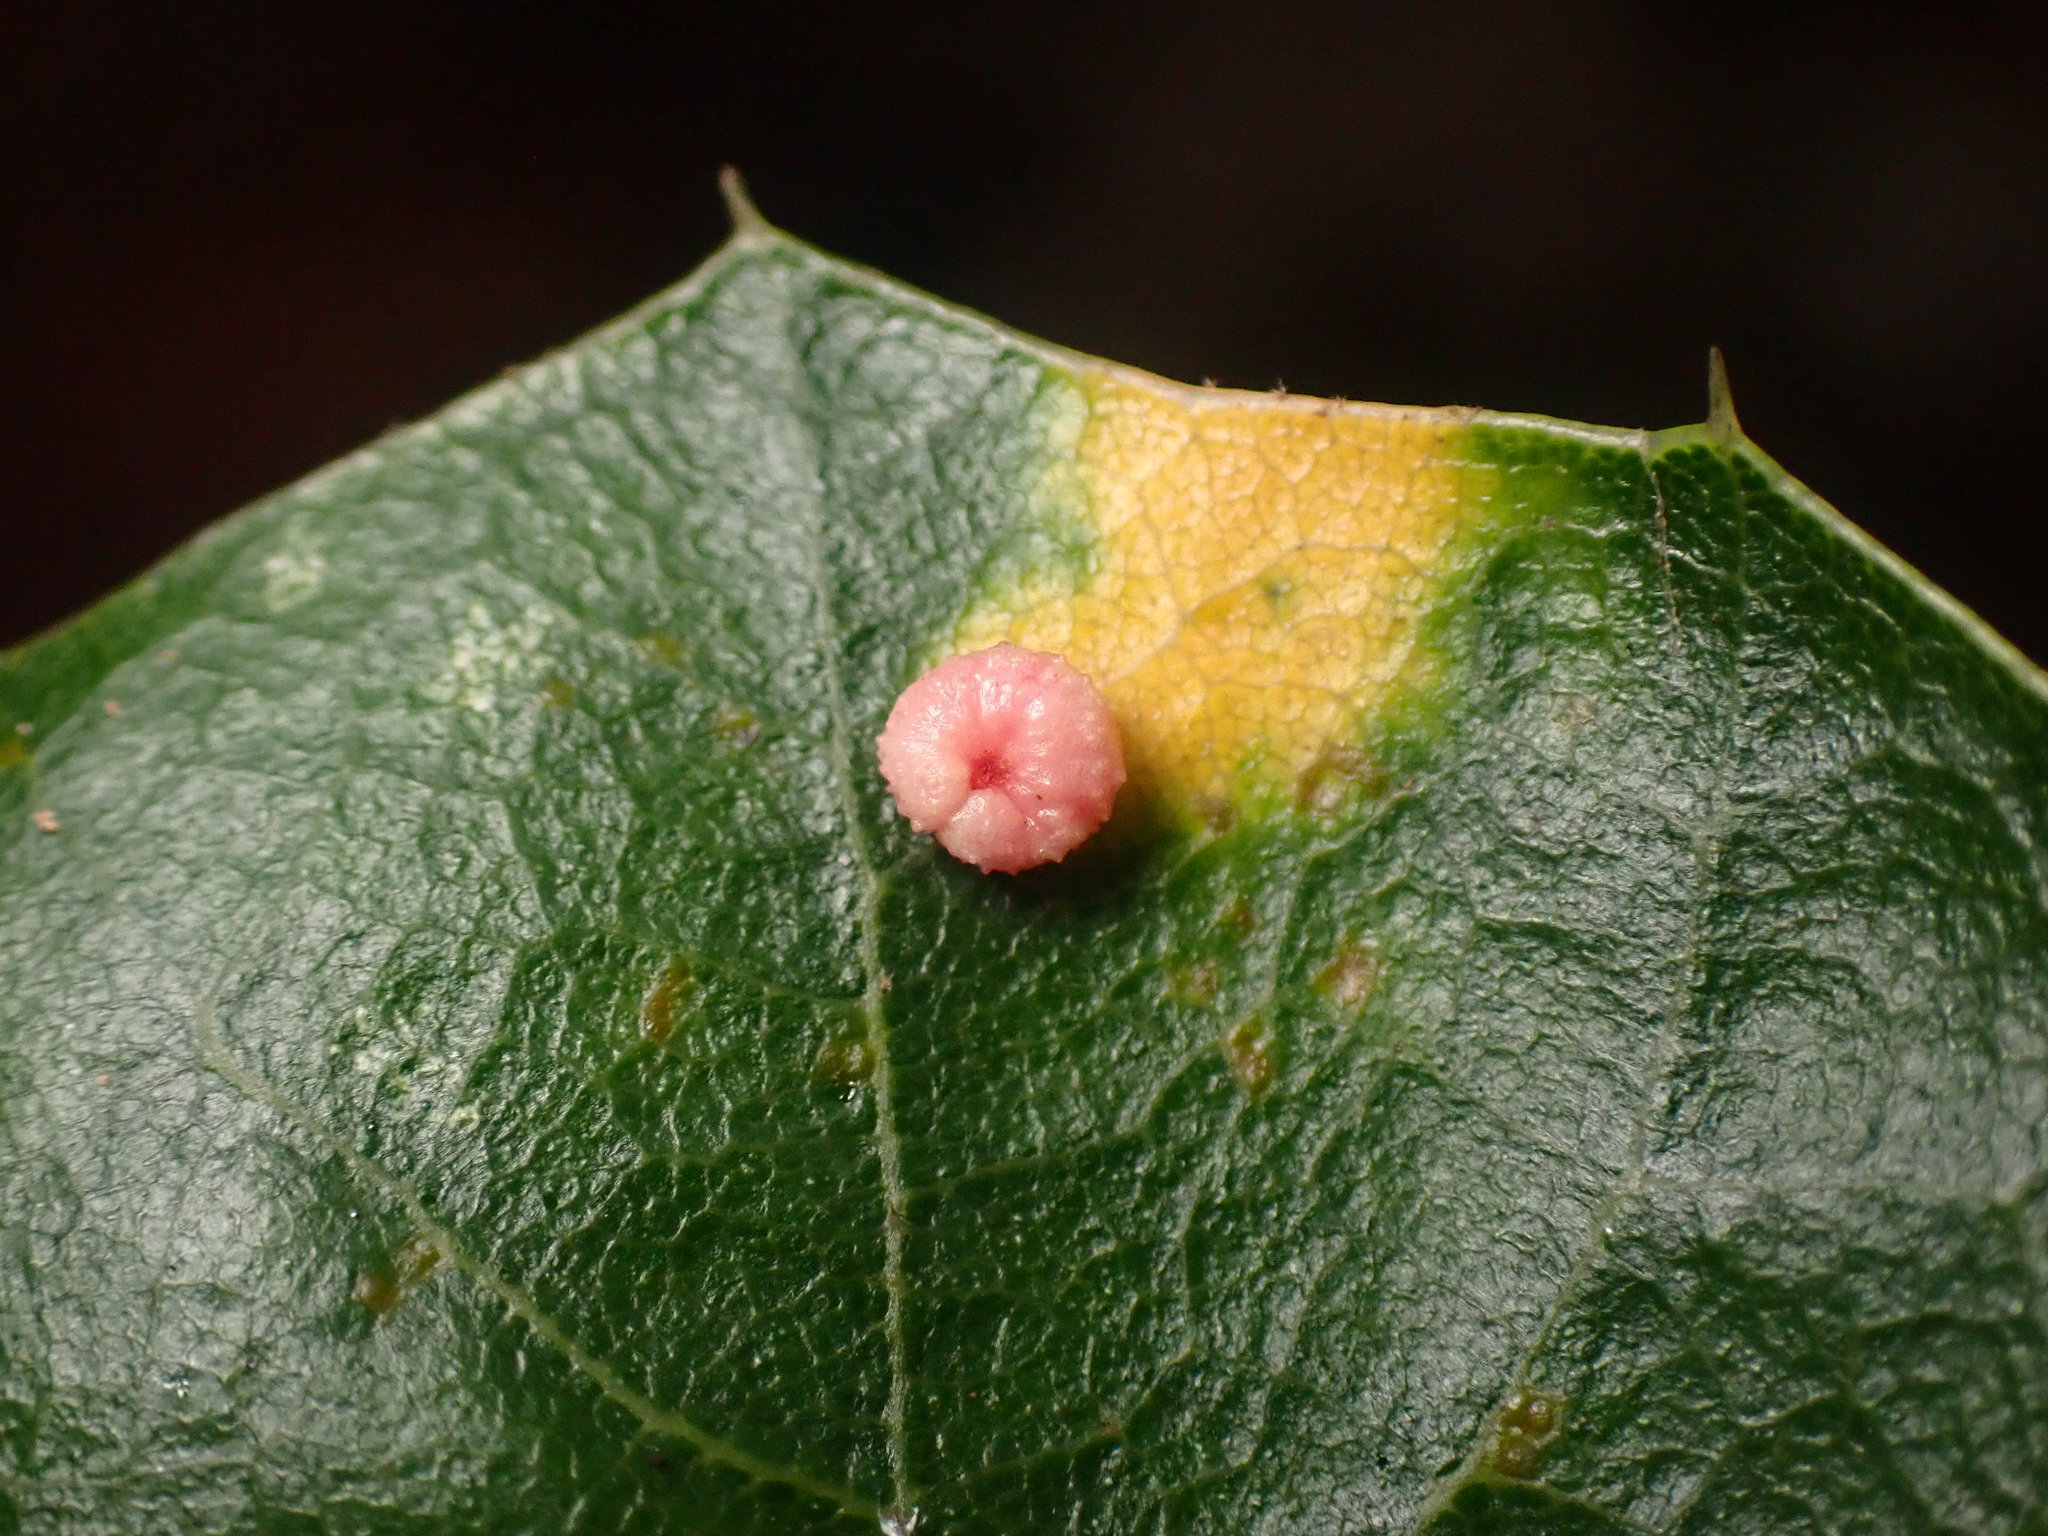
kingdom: Animalia
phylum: Arthropoda
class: Insecta
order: Hymenoptera
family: Cynipidae
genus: Dryocosmus
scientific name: Dryocosmus
